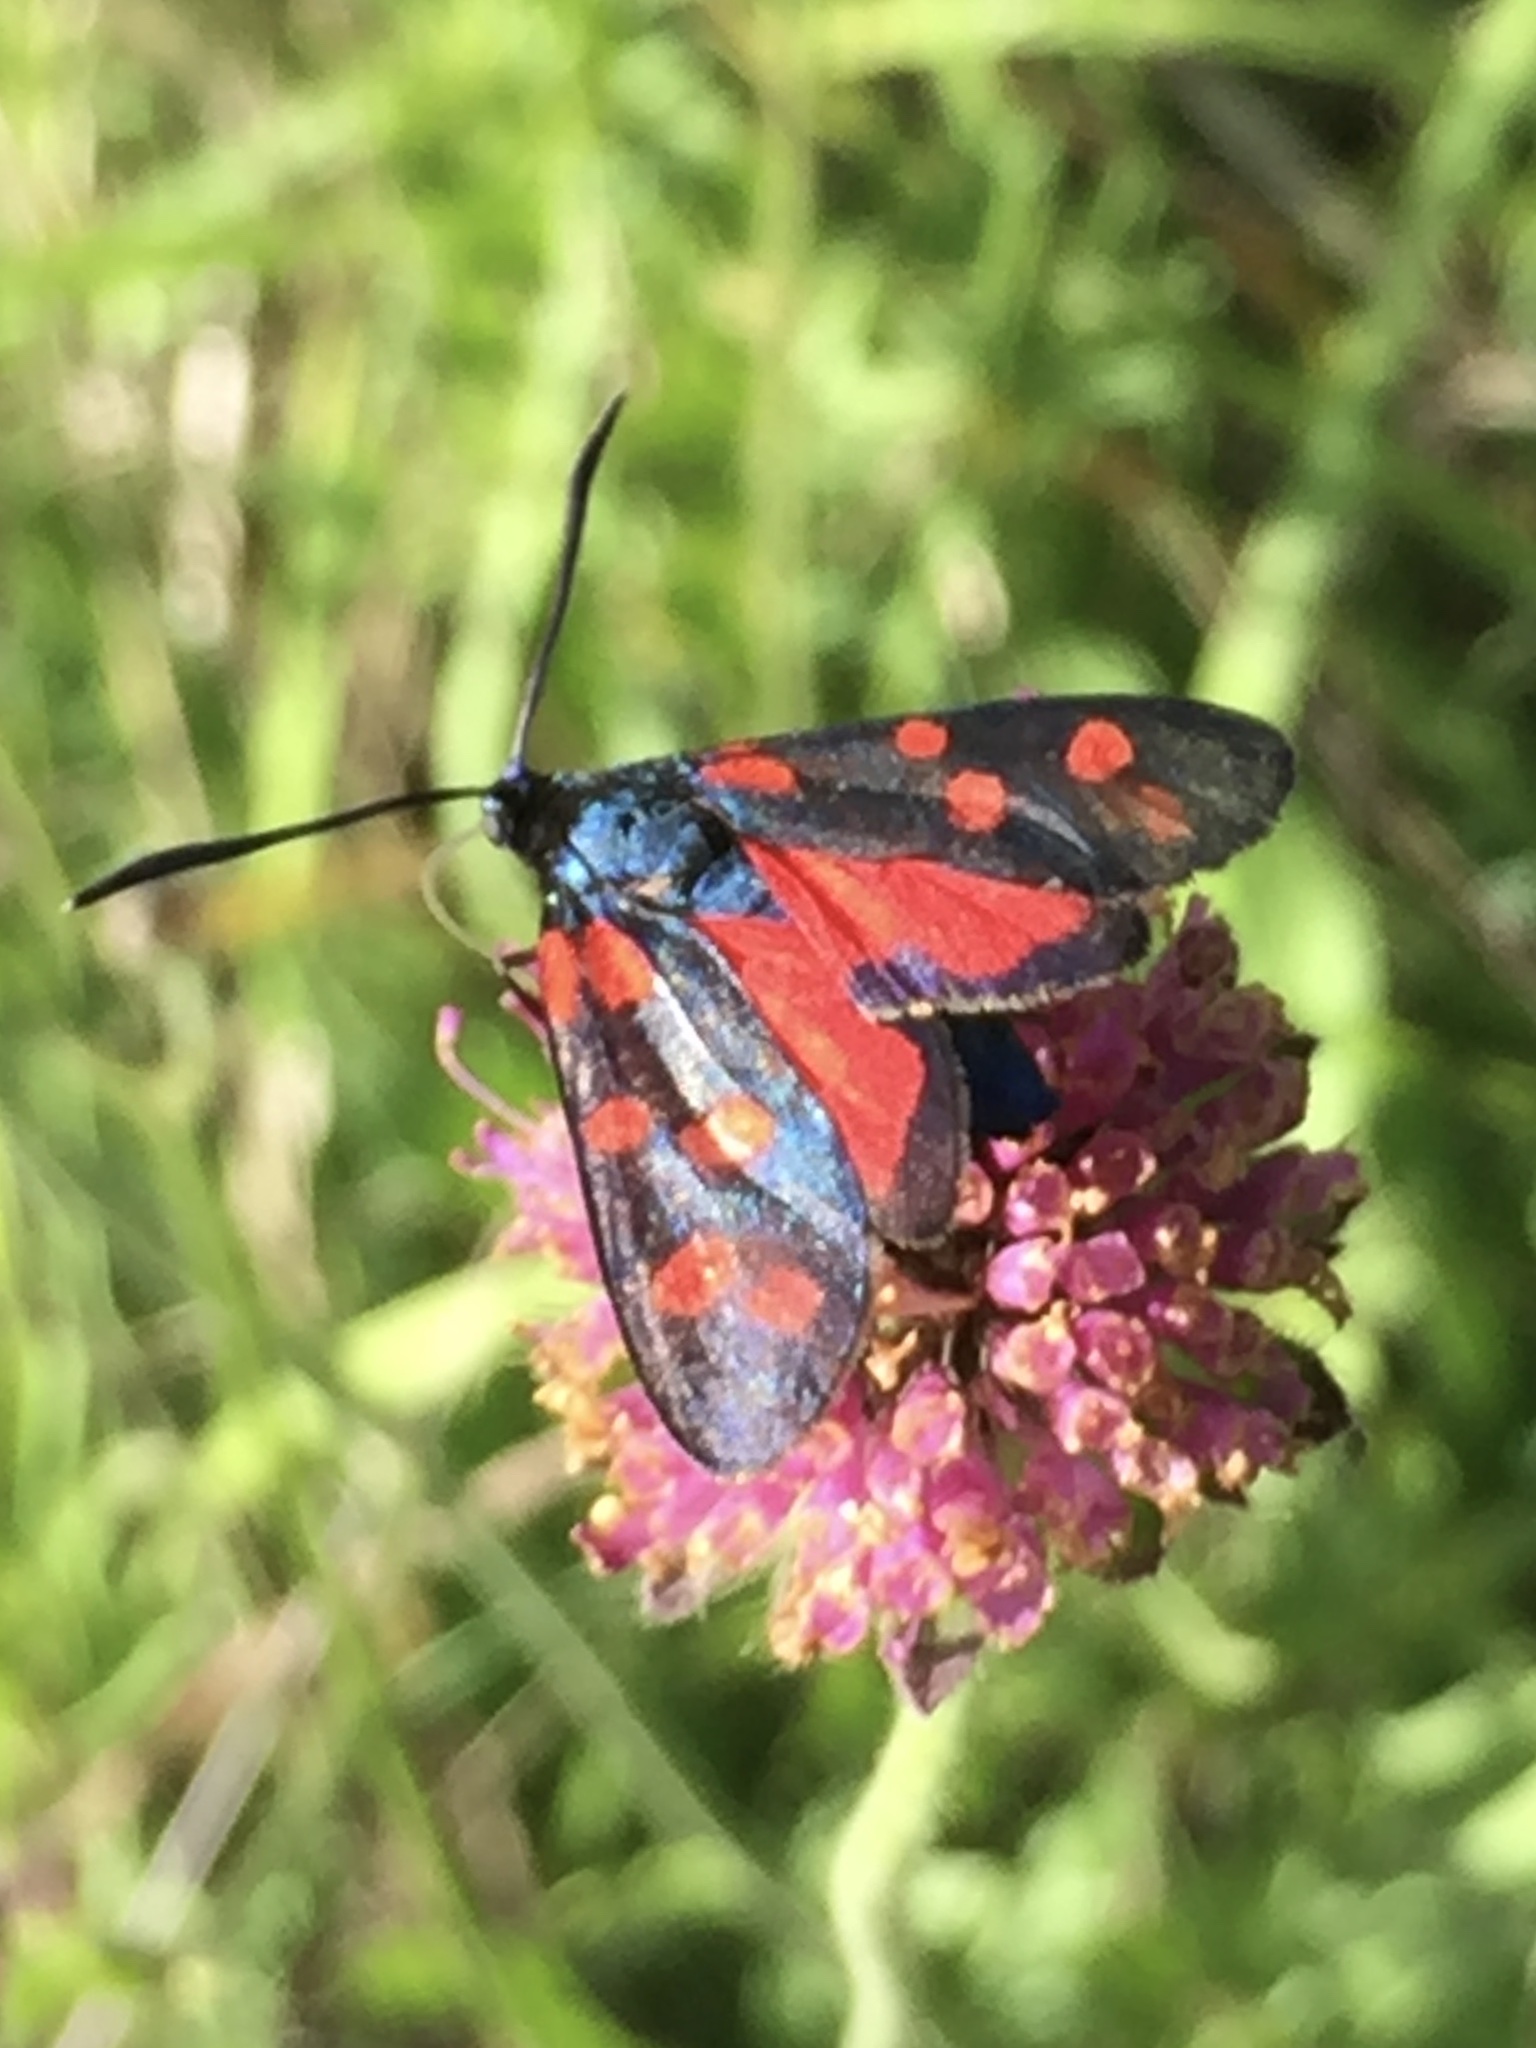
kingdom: Animalia
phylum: Arthropoda
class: Insecta
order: Lepidoptera
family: Zygaenidae
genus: Zygaena
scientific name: Zygaena transalpina
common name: Southern six spot burnet
